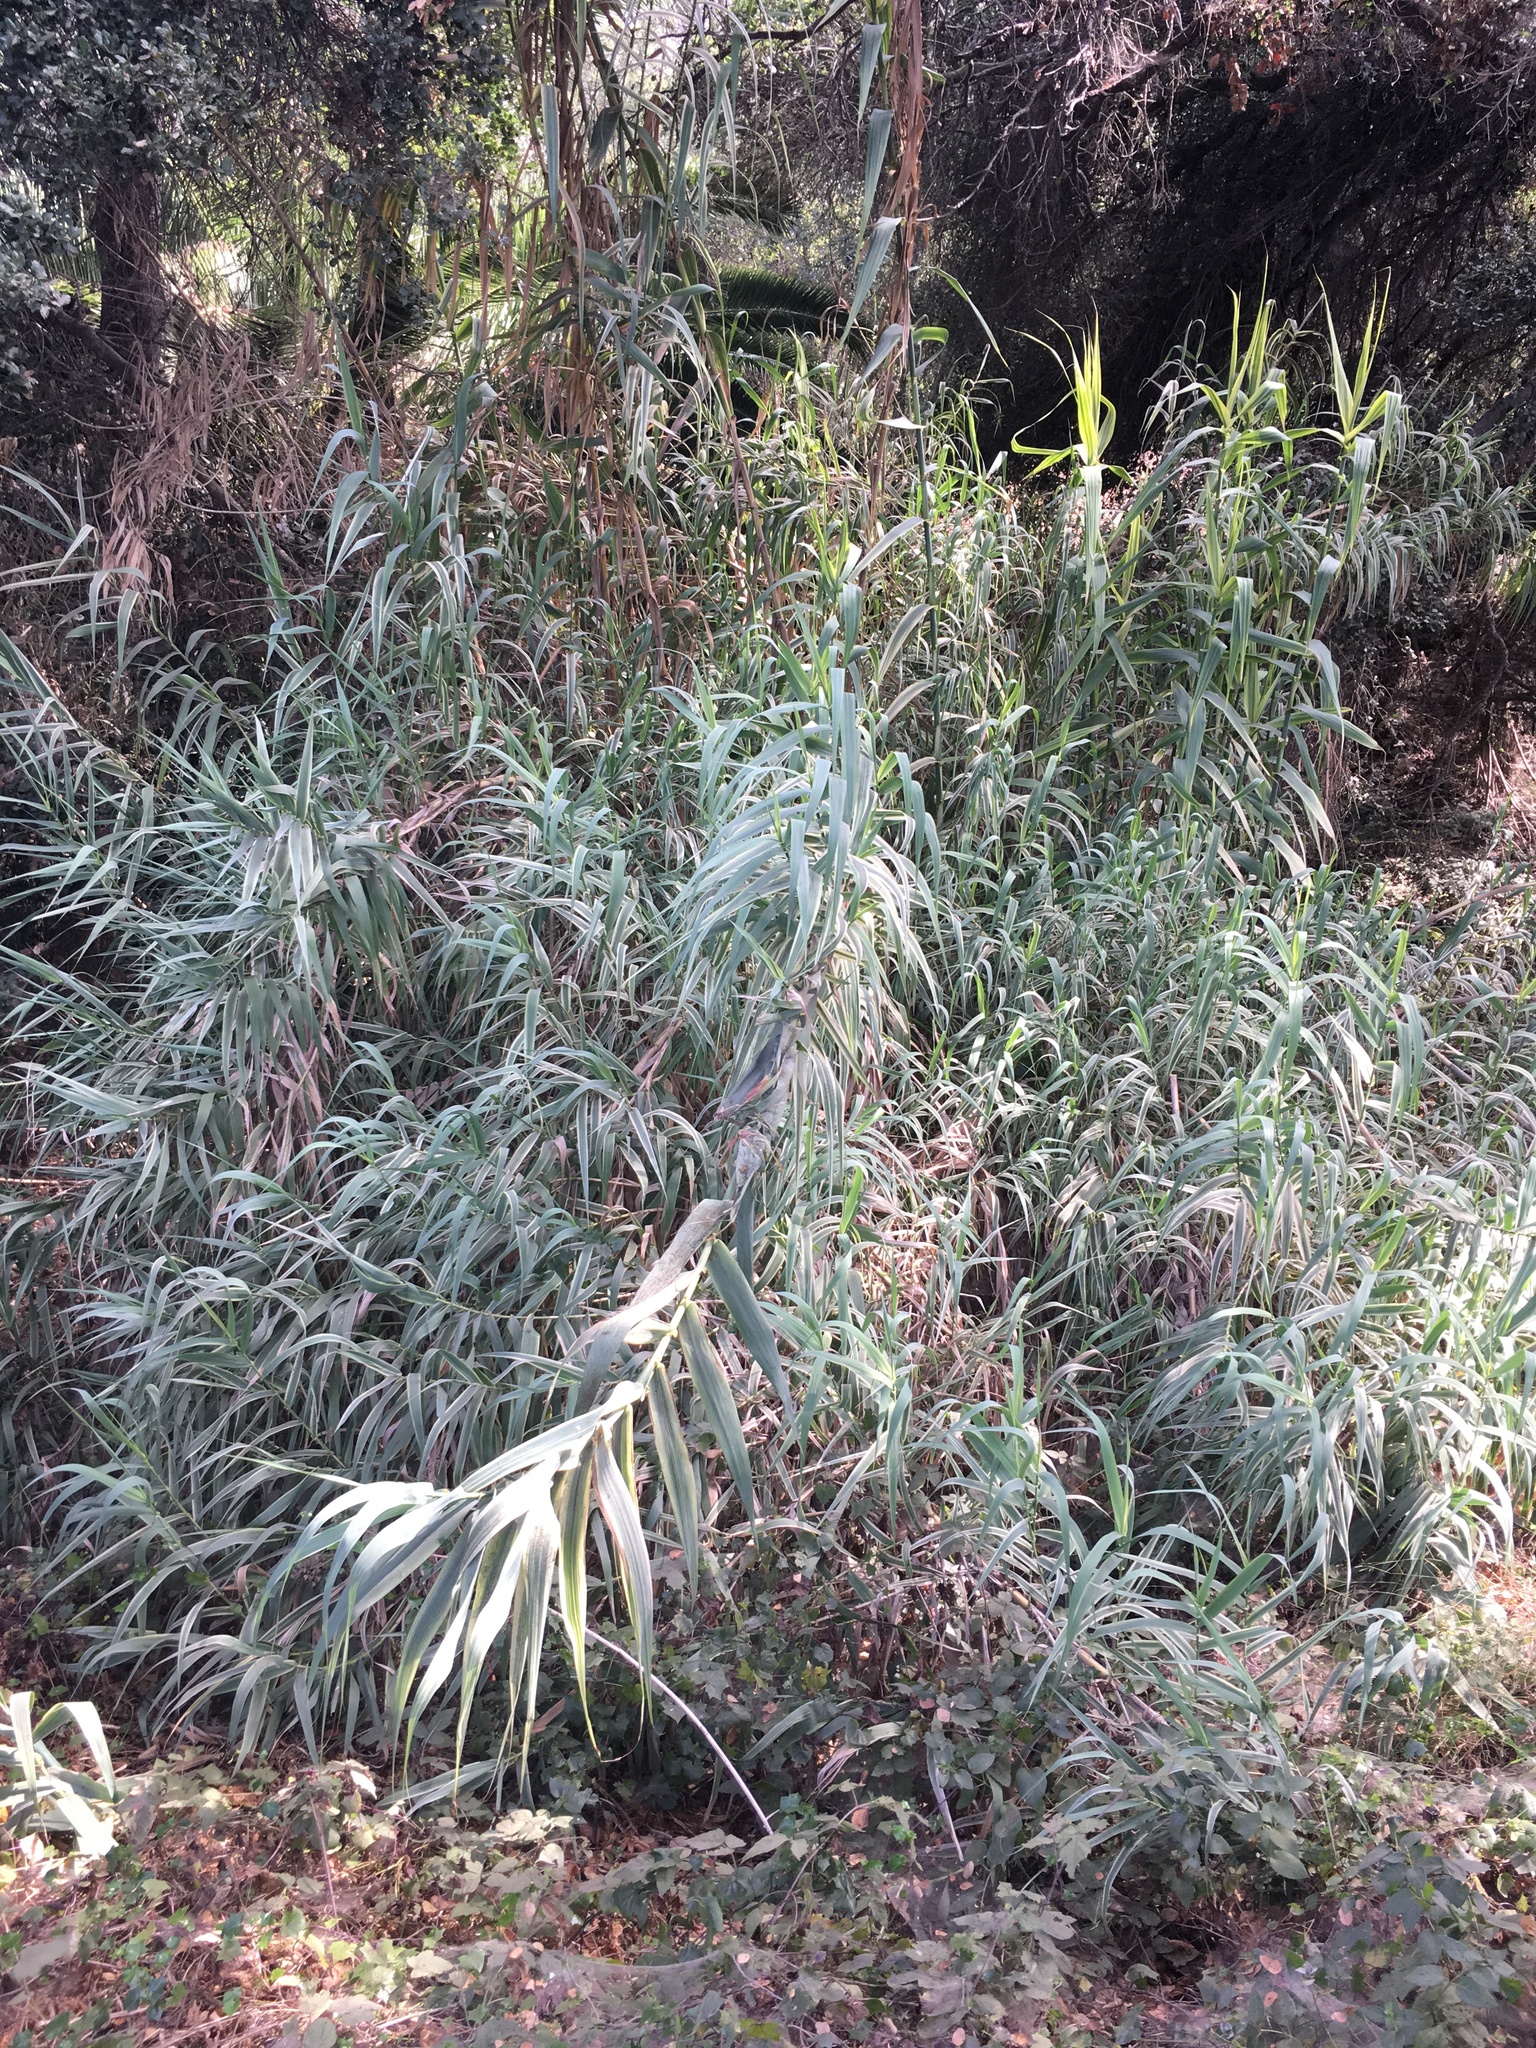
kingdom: Plantae
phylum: Tracheophyta
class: Liliopsida
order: Poales
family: Poaceae
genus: Arundo
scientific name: Arundo donax
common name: Giant reed
